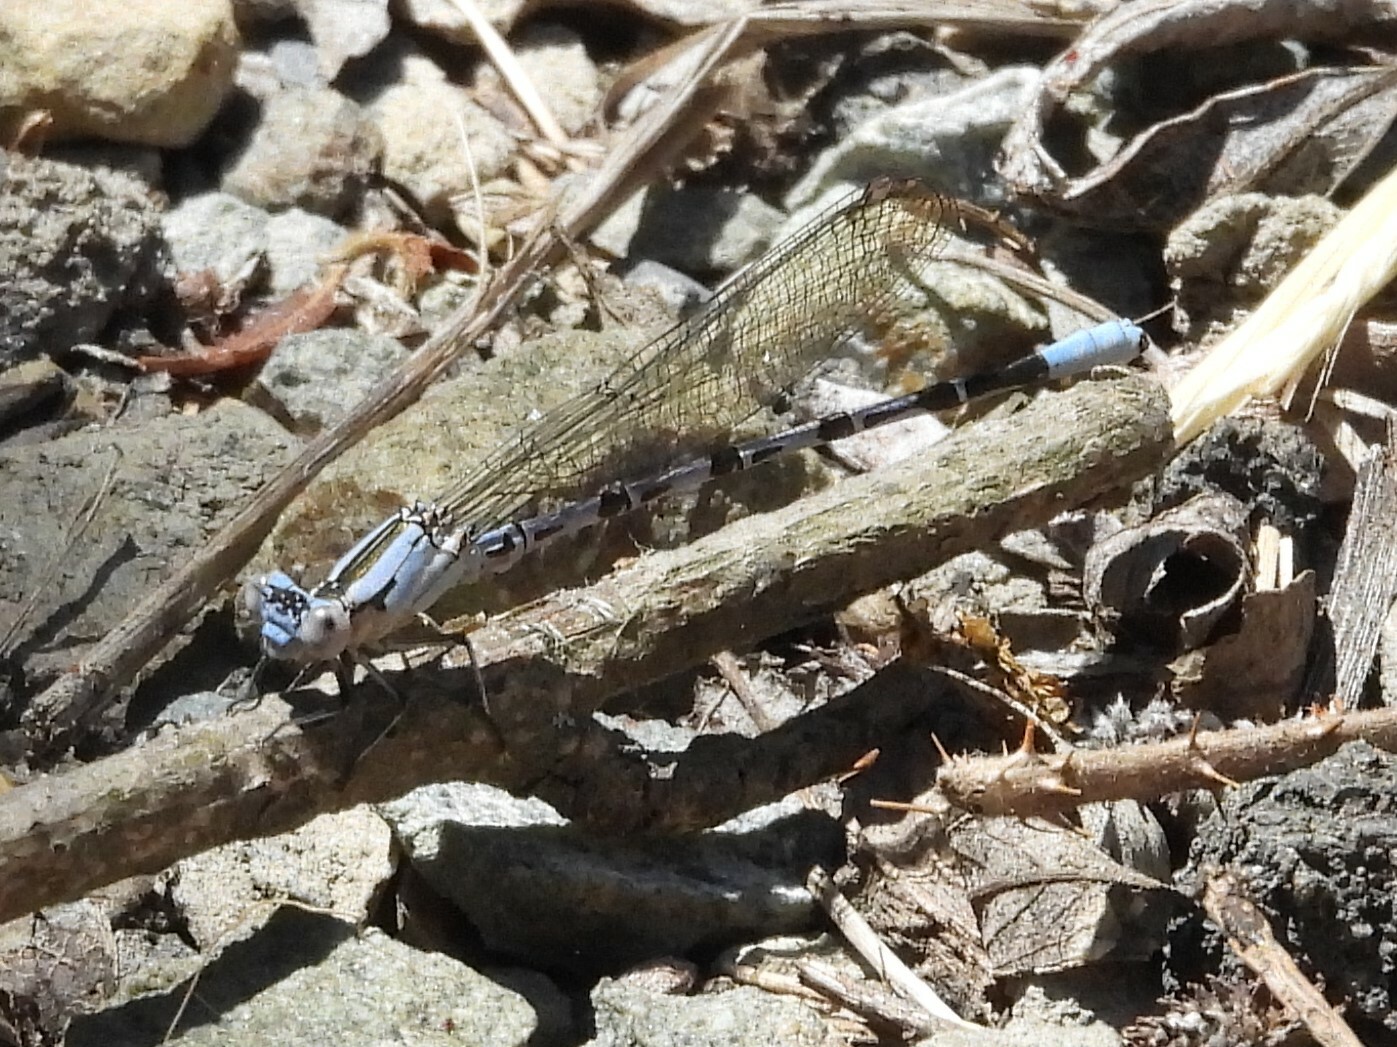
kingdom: Animalia
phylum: Arthropoda
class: Insecta
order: Odonata
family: Coenagrionidae
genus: Argia
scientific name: Argia vivida
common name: Vivid dancer
